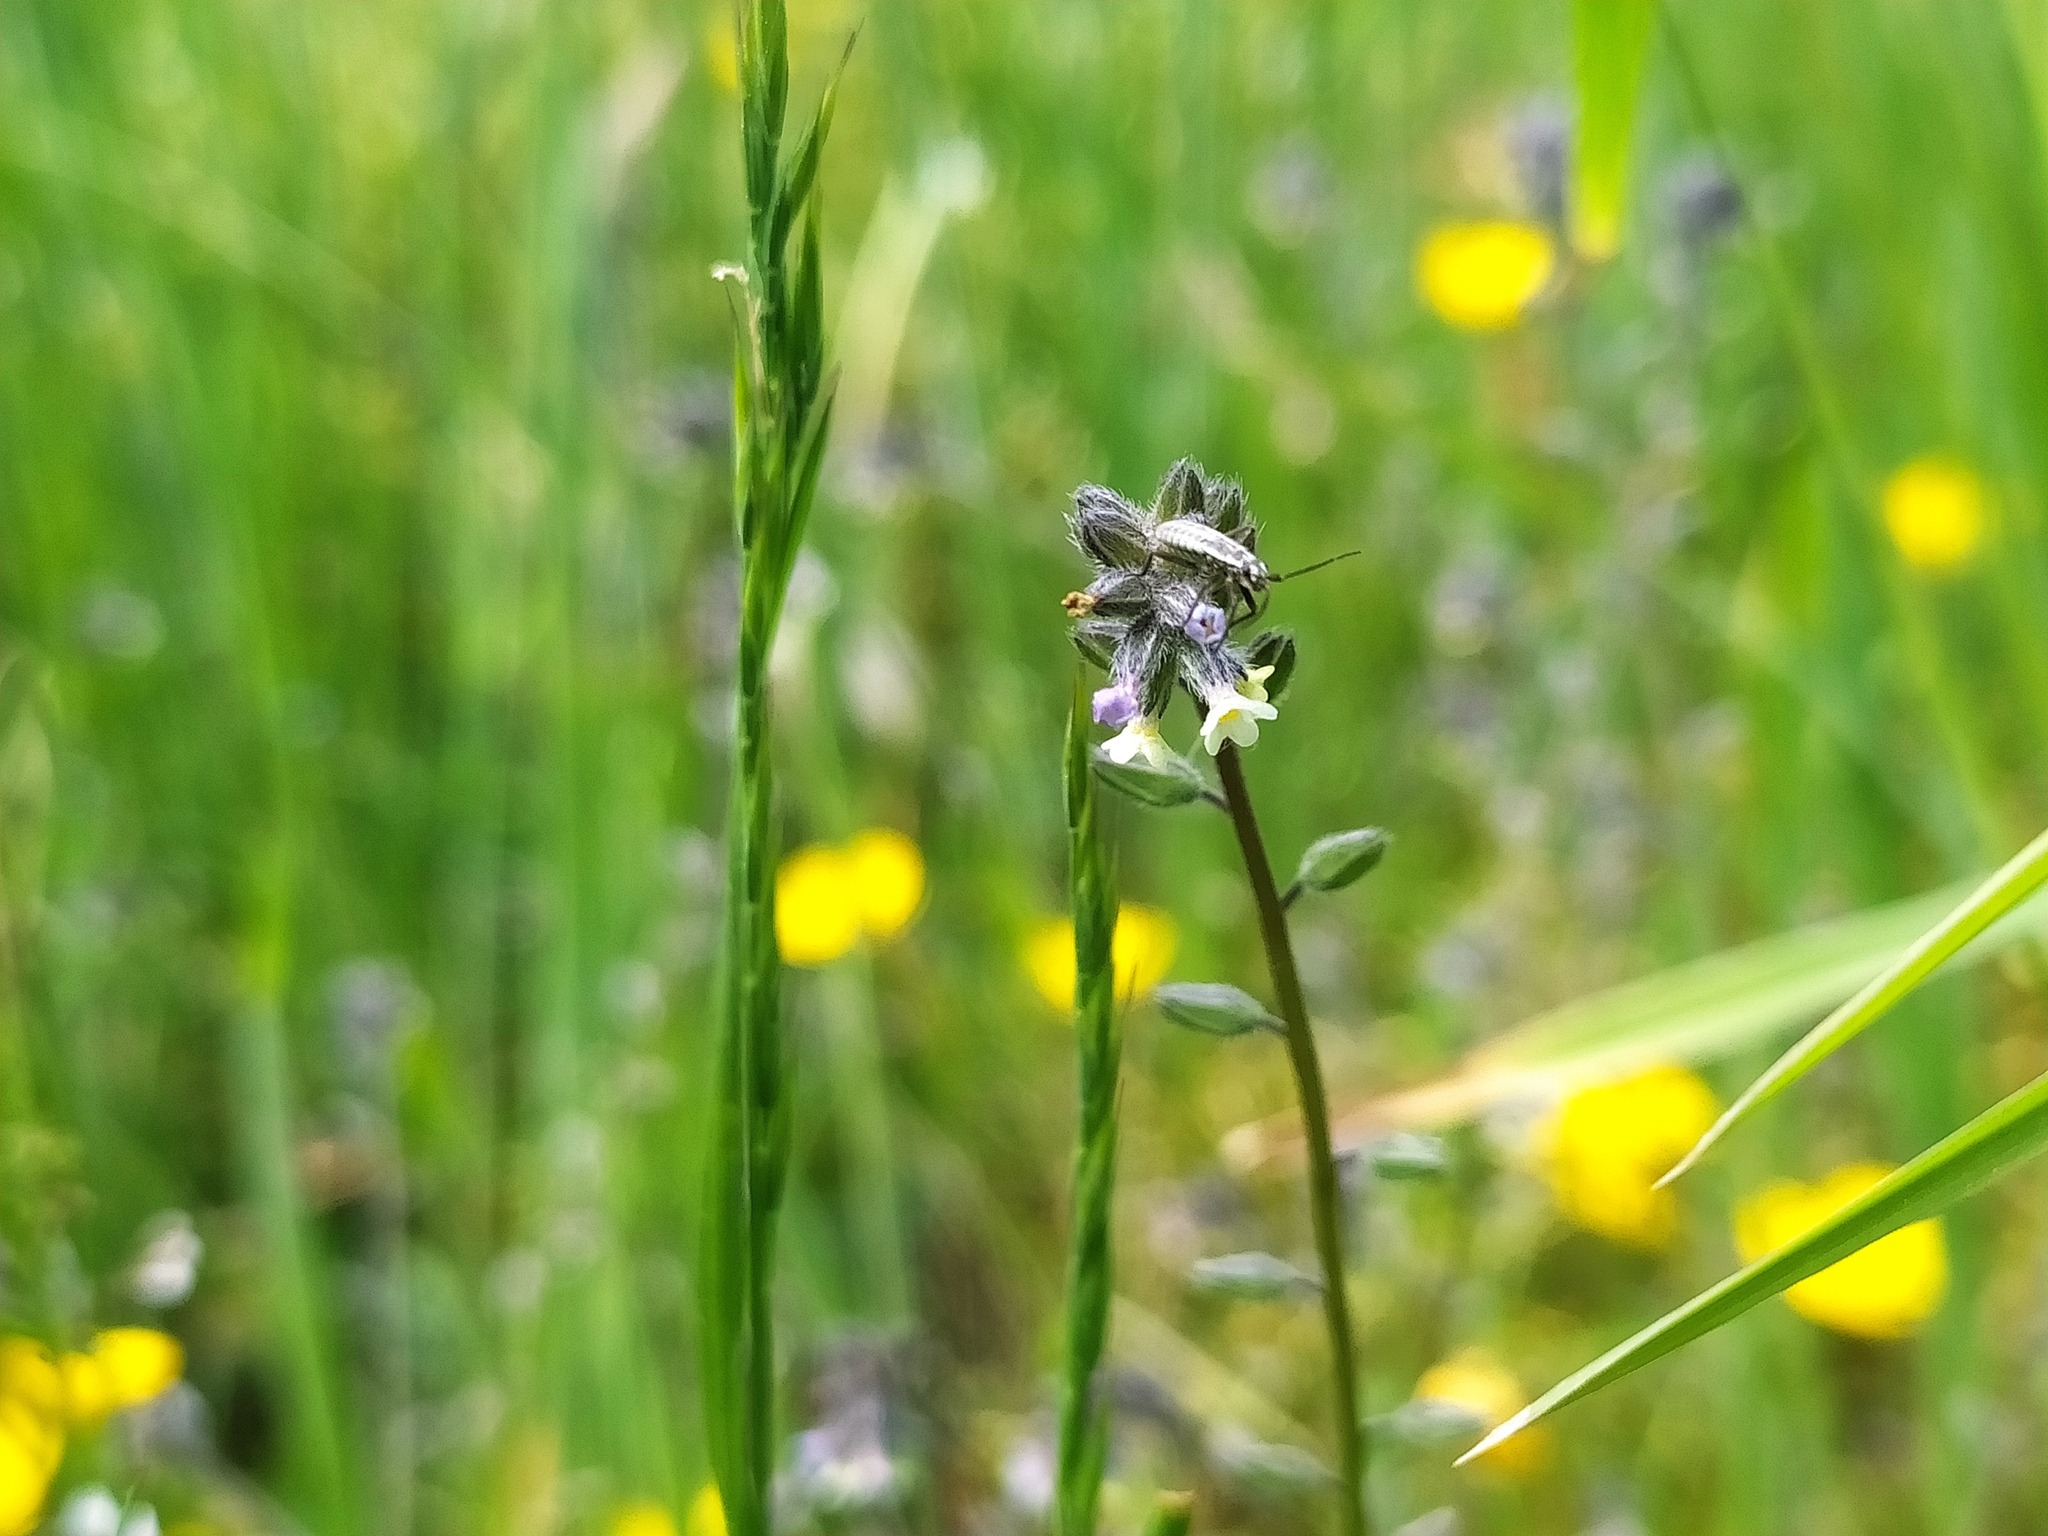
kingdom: Plantae
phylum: Tracheophyta
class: Magnoliopsida
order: Boraginales
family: Boraginaceae
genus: Myosotis
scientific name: Myosotis discolor
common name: Changing forget-me-not
